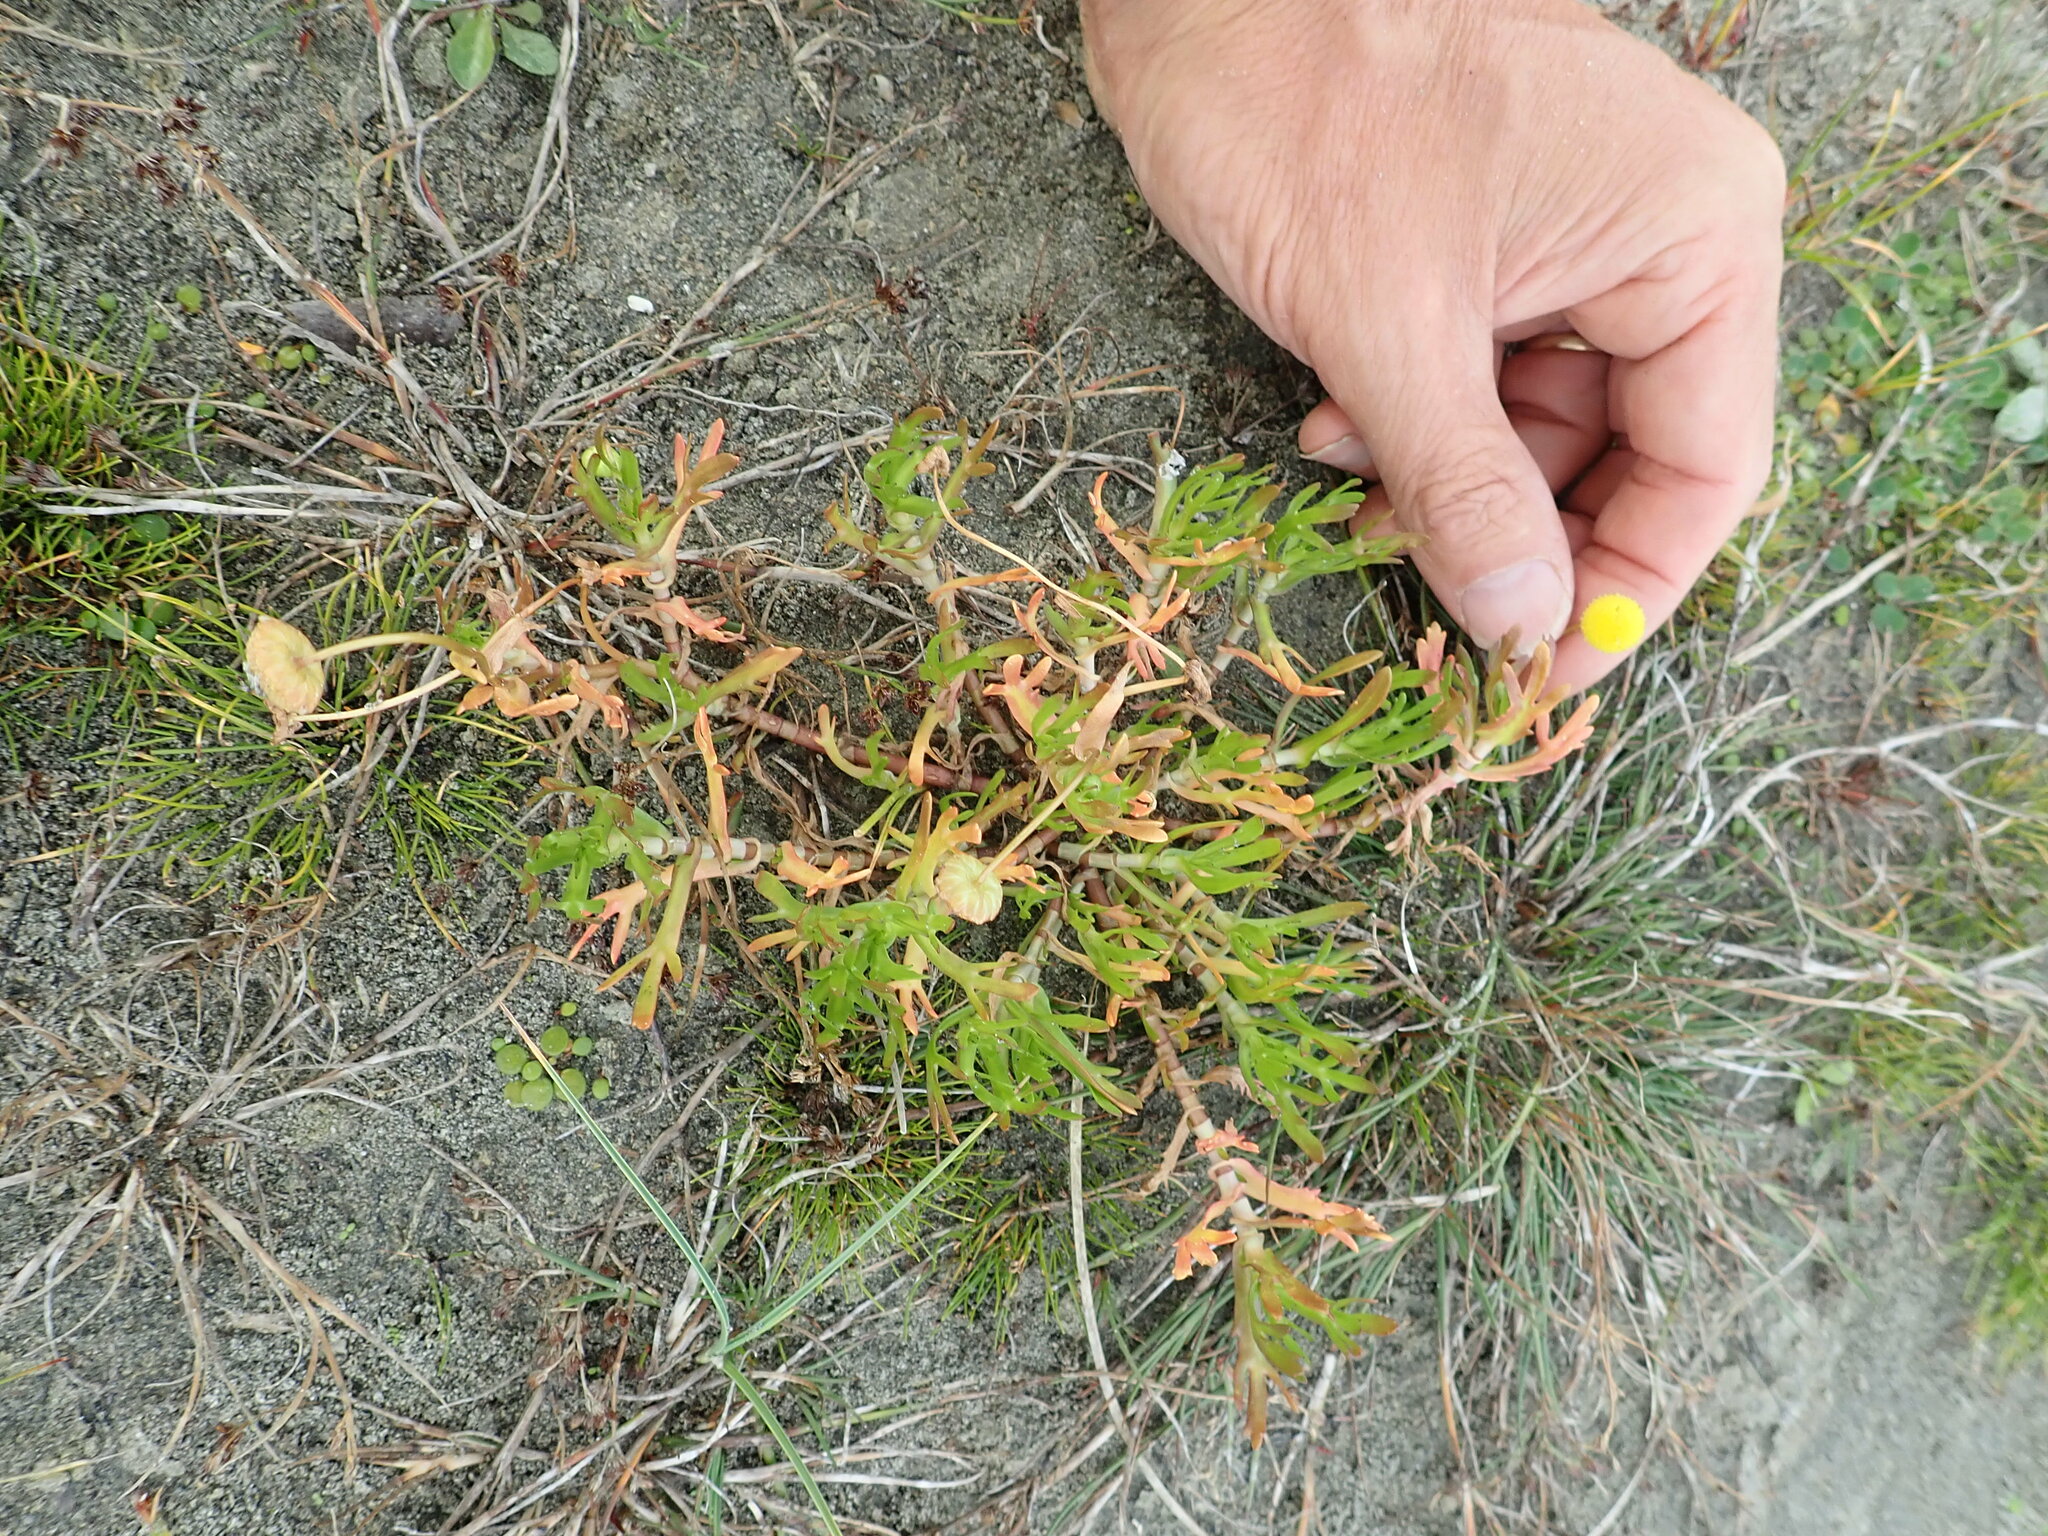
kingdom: Plantae
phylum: Tracheophyta
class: Magnoliopsida
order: Asterales
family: Asteraceae
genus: Cotula
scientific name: Cotula coronopifolia
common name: Buttonweed
